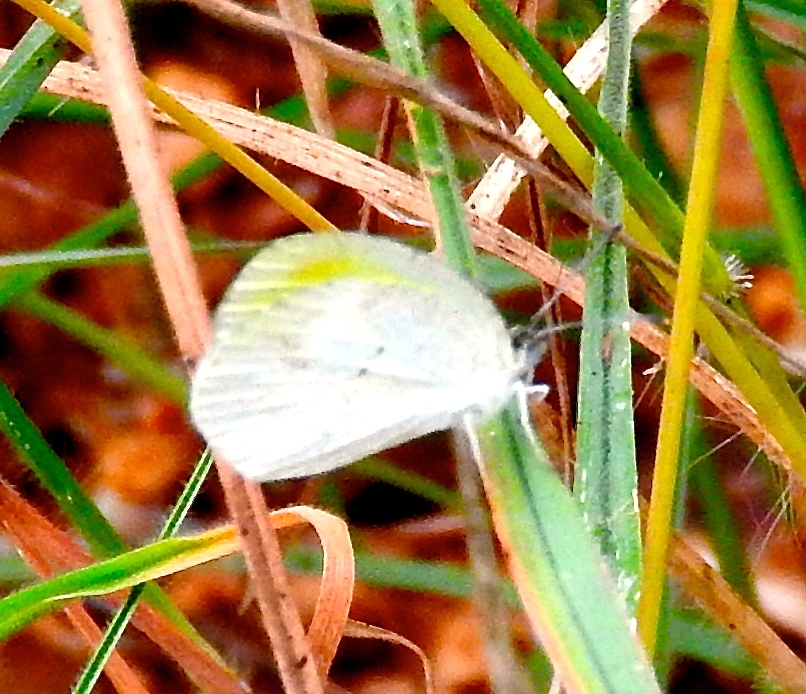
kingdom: Animalia
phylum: Arthropoda
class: Insecta
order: Lepidoptera
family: Pieridae
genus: Eurema
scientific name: Eurema daira
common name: Barred sulphur
